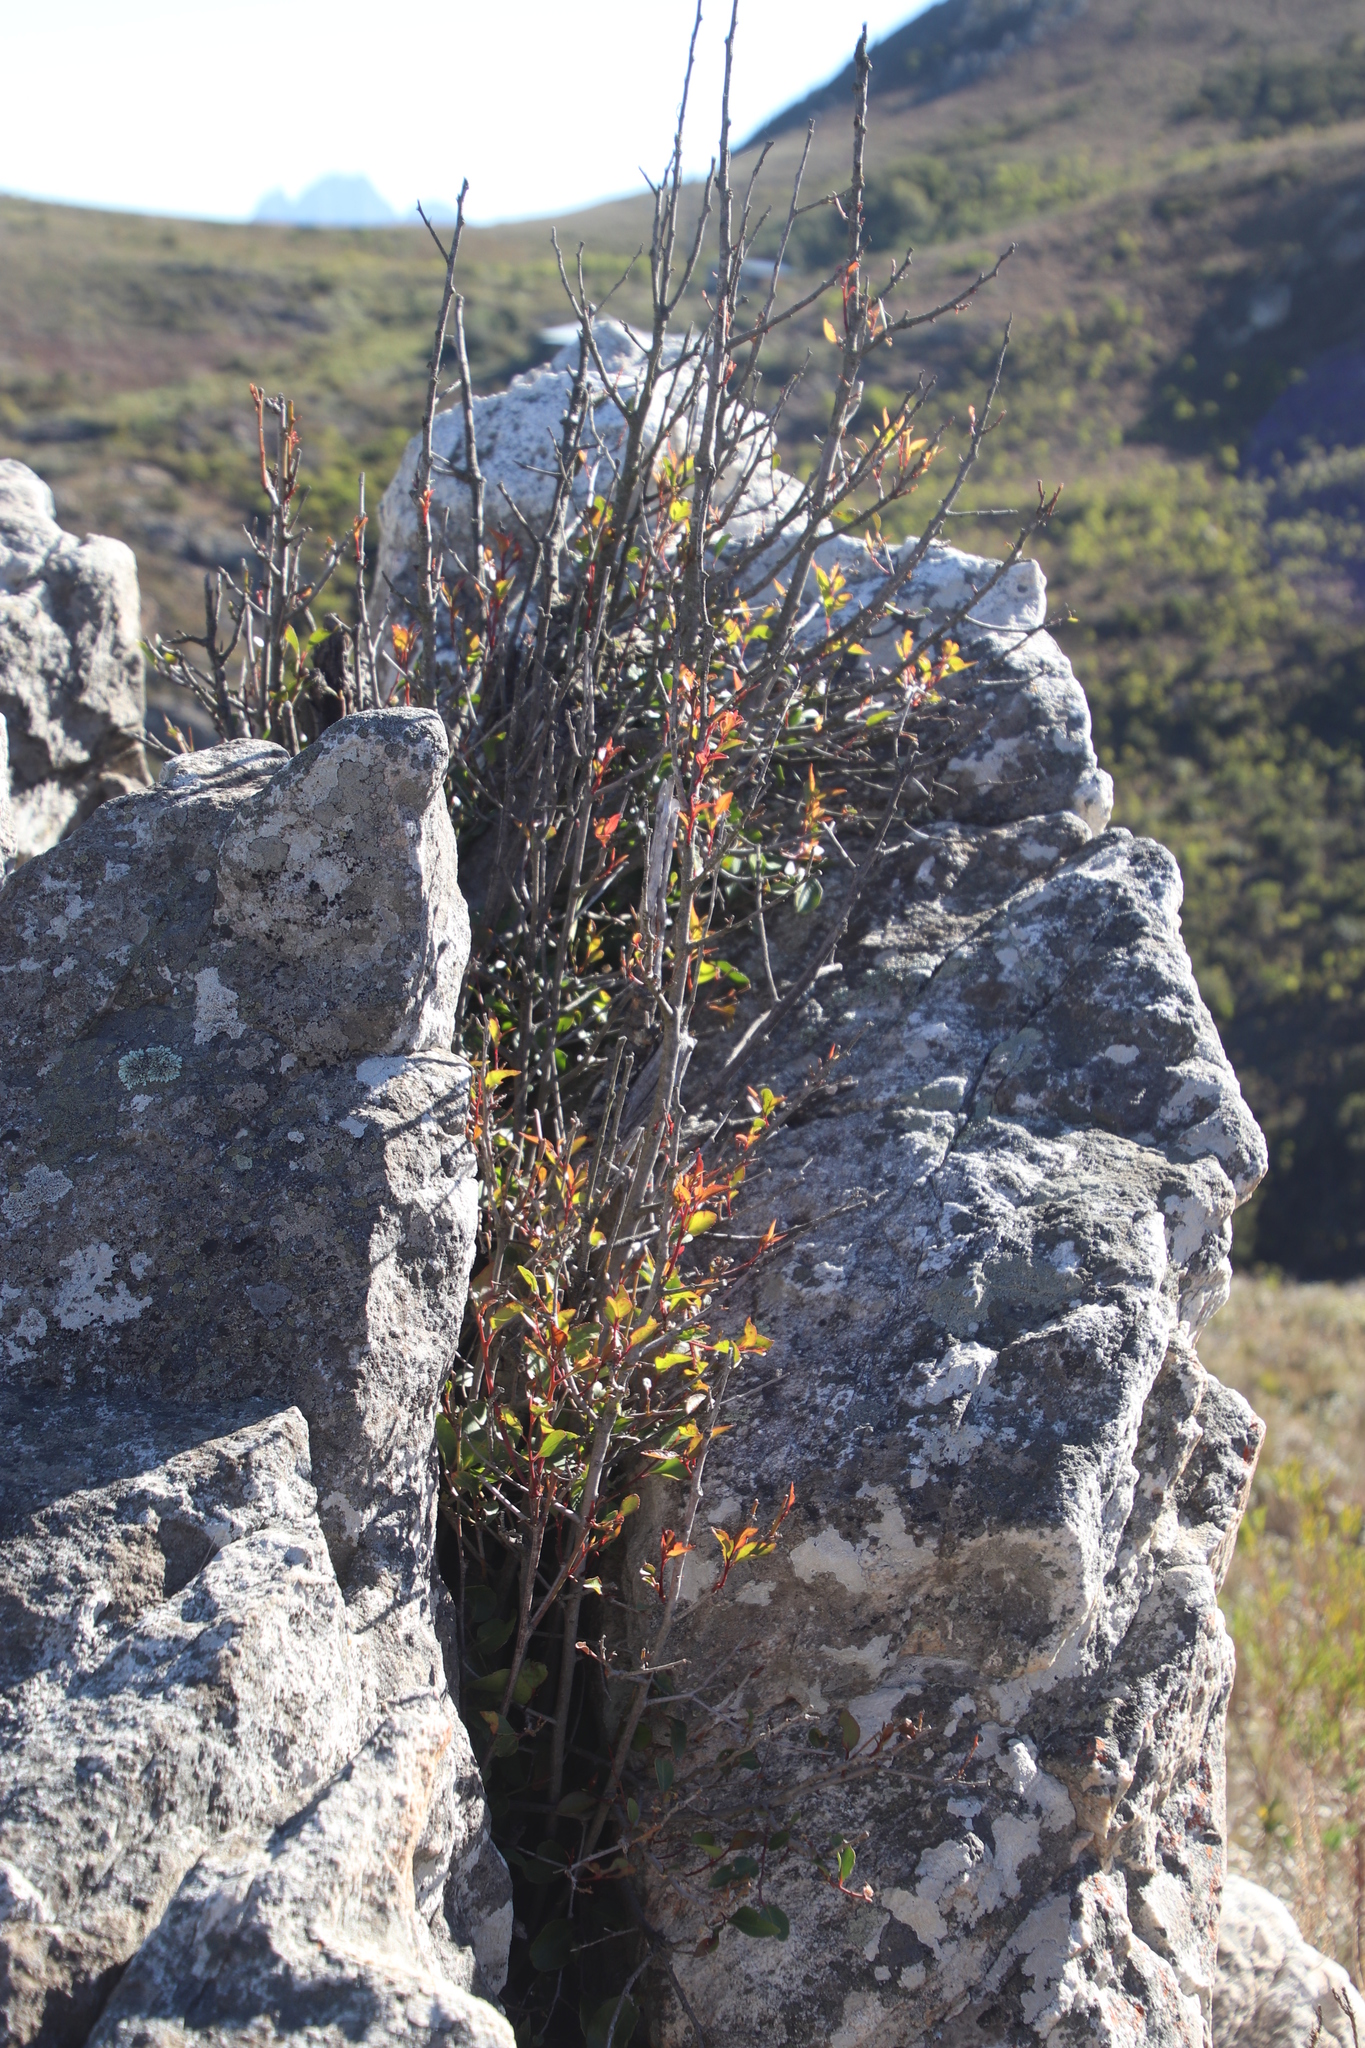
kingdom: Plantae
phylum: Tracheophyta
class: Magnoliopsida
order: Celastrales
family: Celastraceae
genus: Elaeodendron
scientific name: Elaeodendron schinoides
